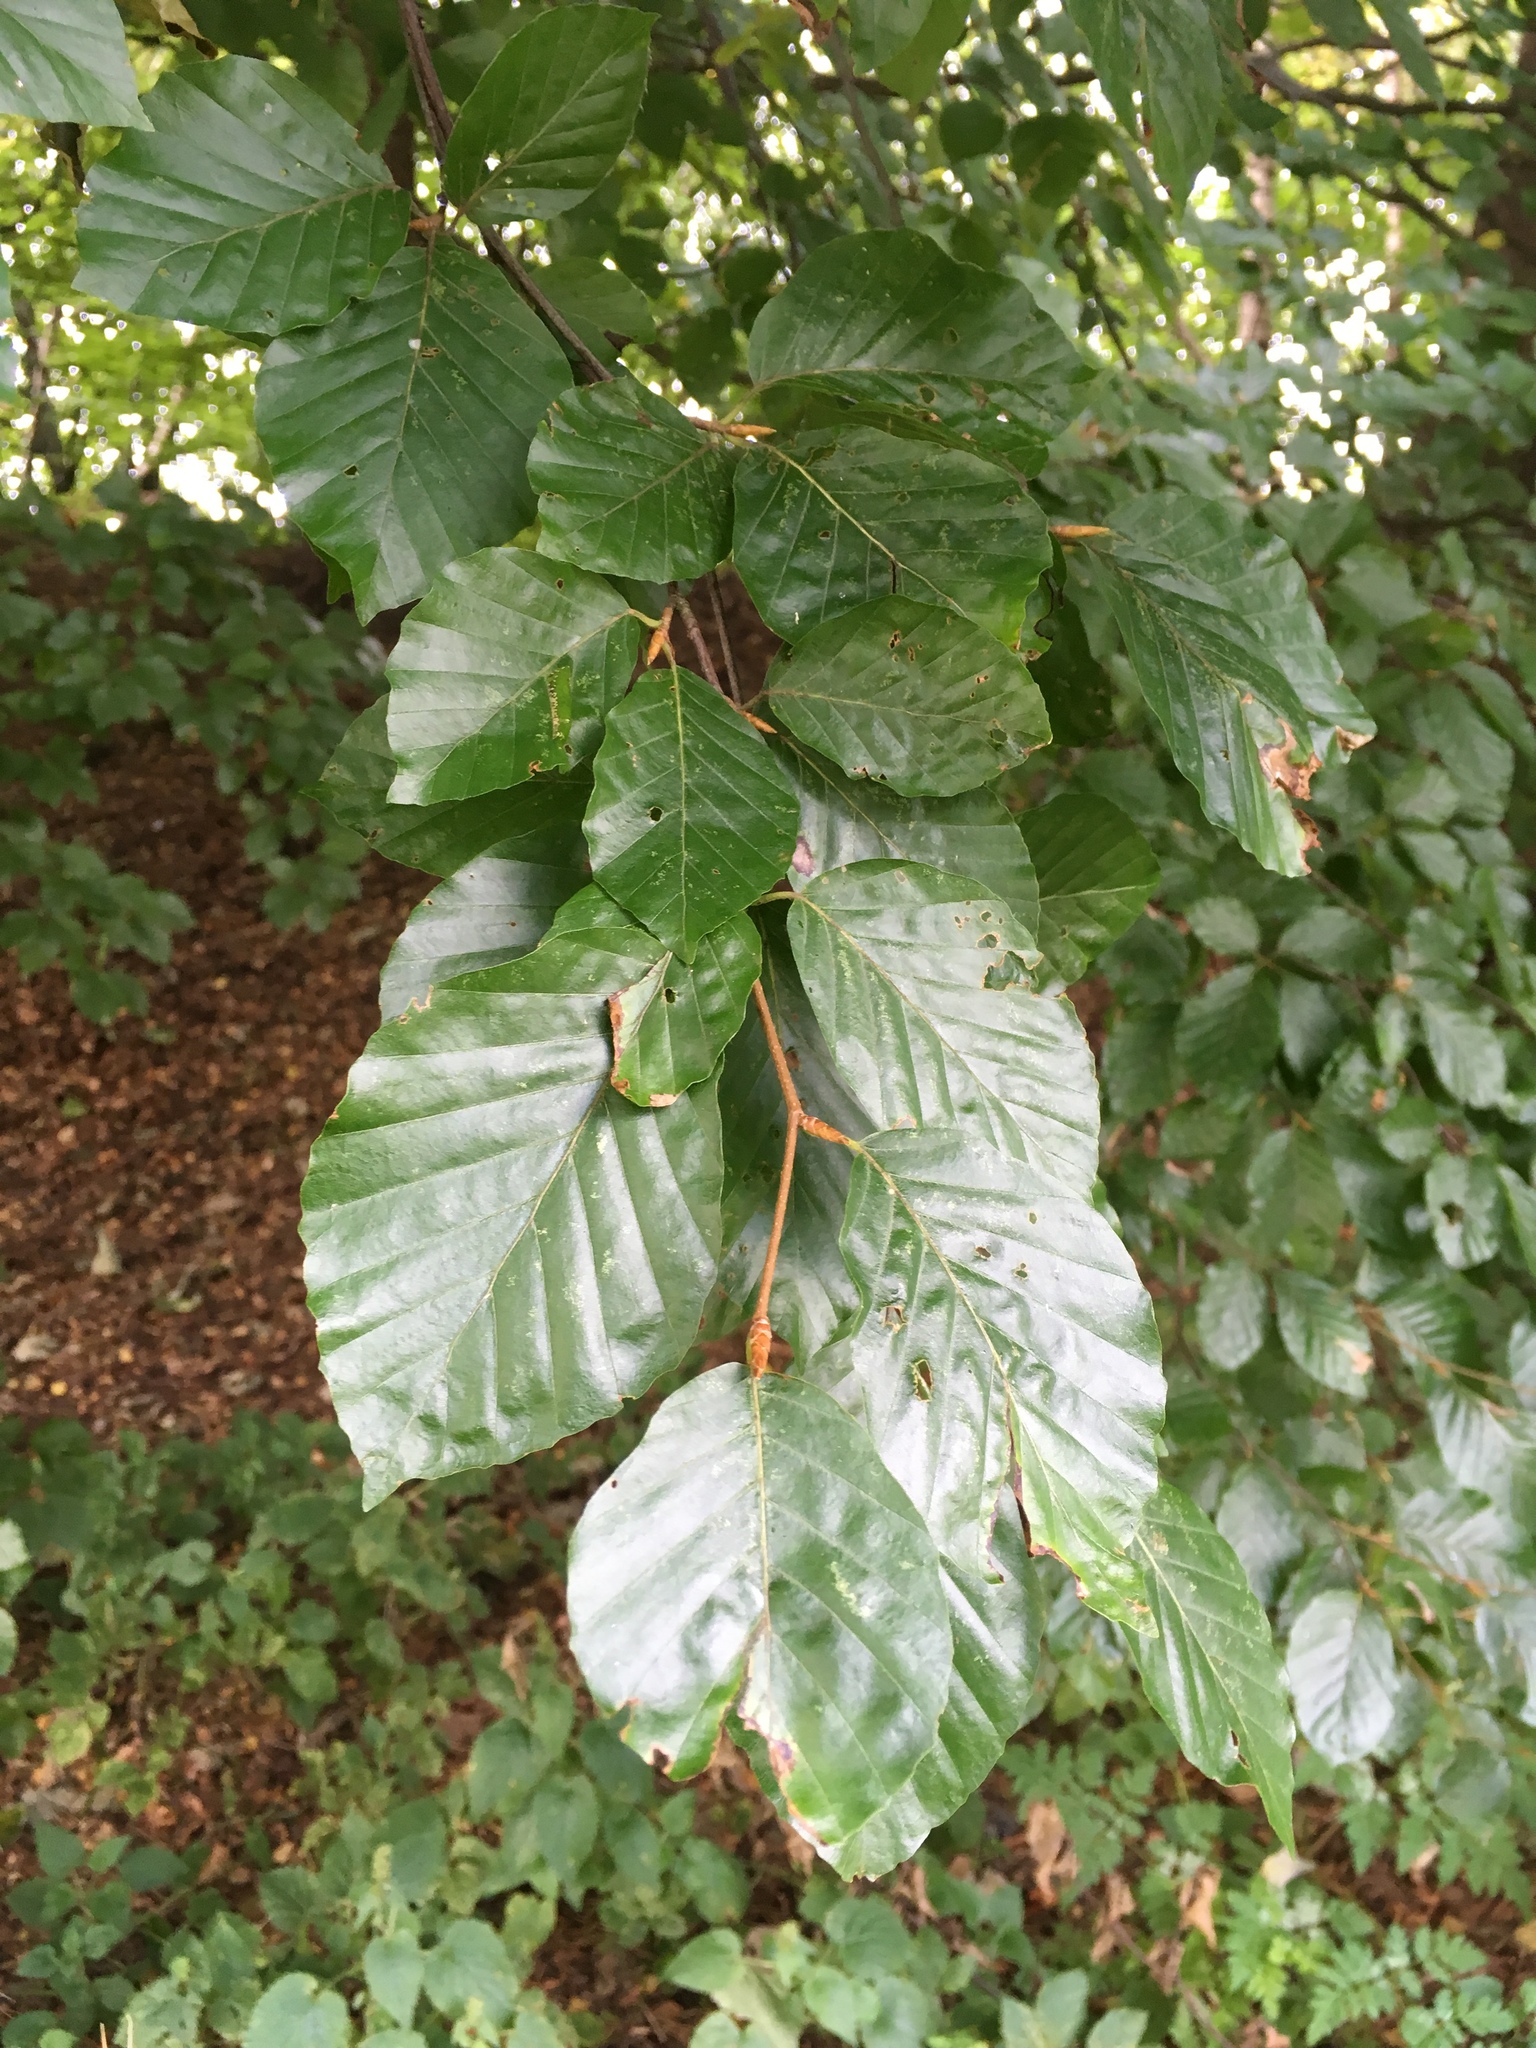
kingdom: Plantae
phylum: Tracheophyta
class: Magnoliopsida
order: Fagales
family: Fagaceae
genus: Fagus
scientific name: Fagus sylvatica
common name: Beech
